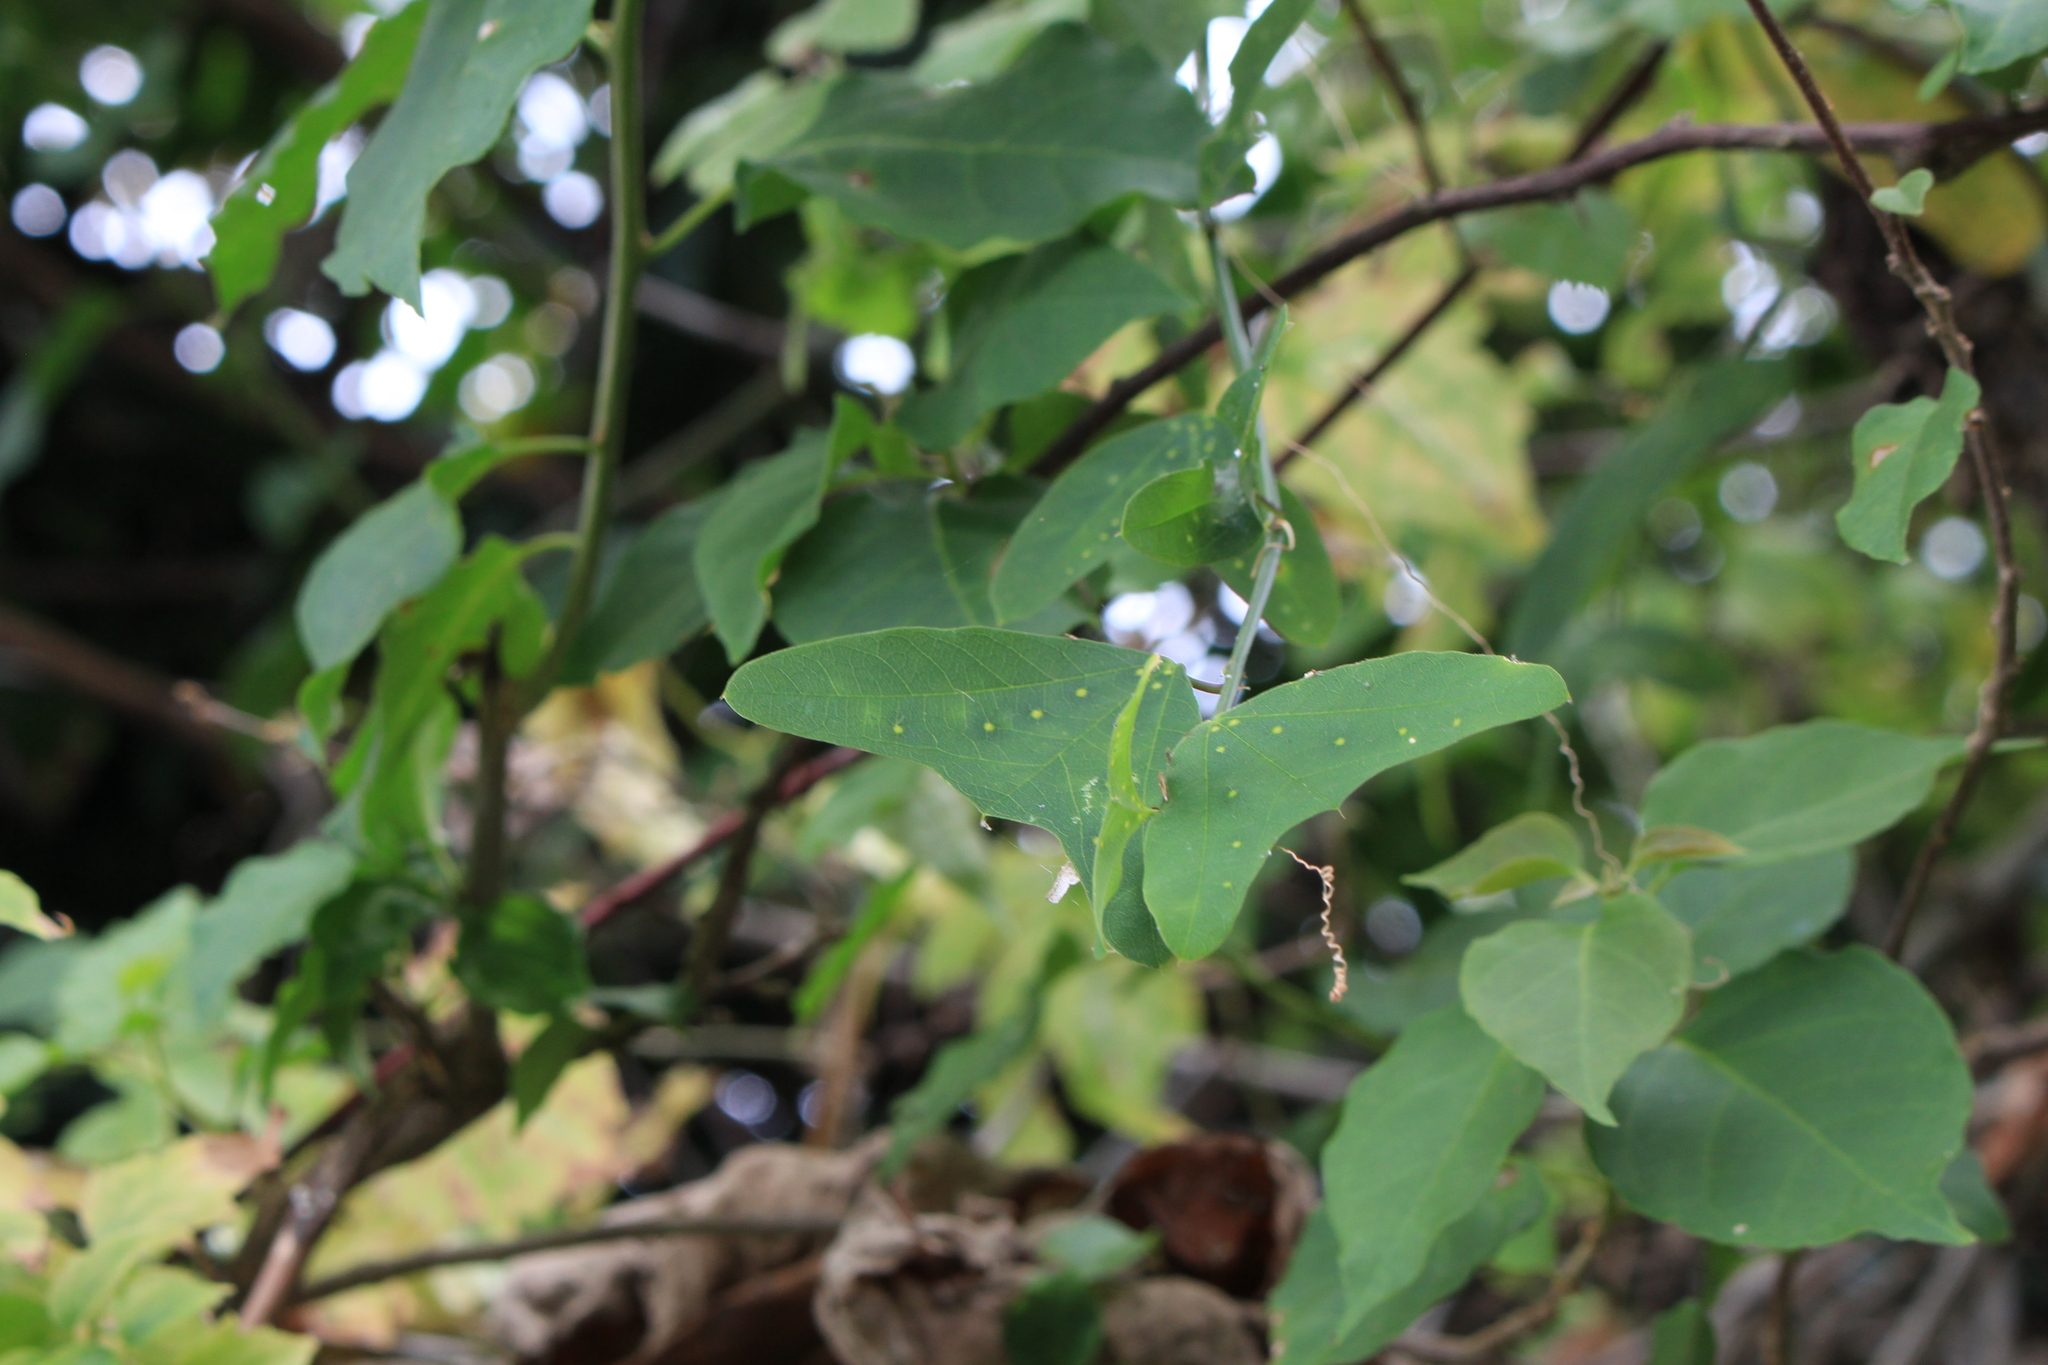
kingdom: Plantae
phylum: Tracheophyta
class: Magnoliopsida
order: Malpighiales
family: Passifloraceae
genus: Passiflora
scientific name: Passiflora biflora
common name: Twoflower passionflower
